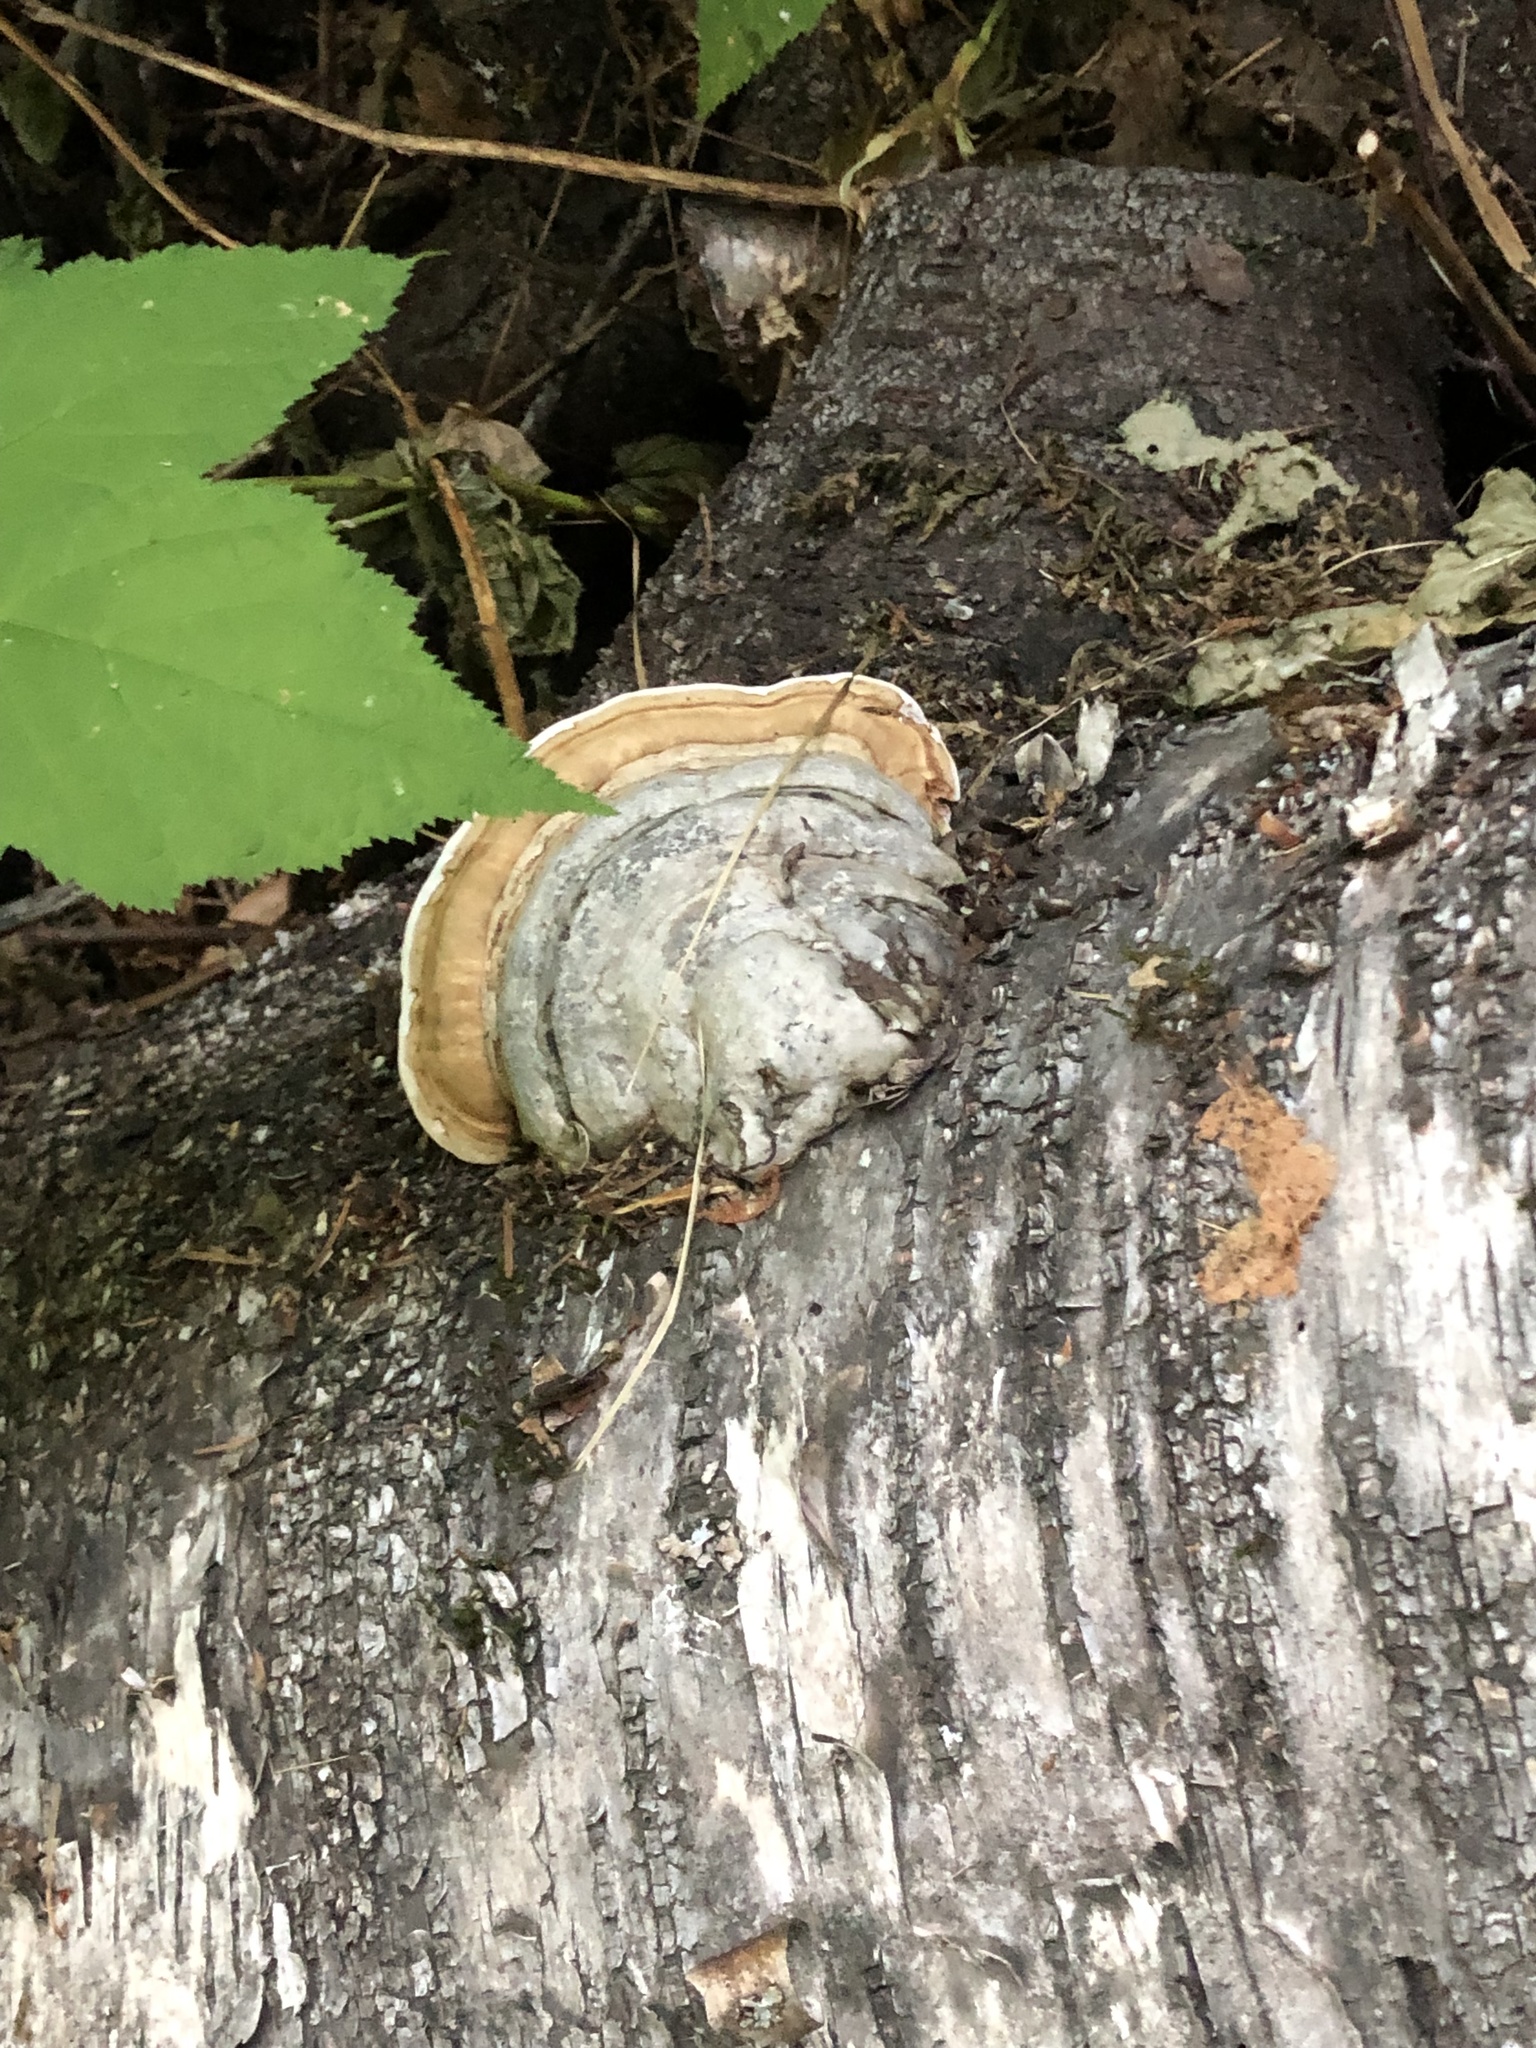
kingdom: Fungi
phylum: Basidiomycota
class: Agaricomycetes
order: Polyporales
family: Polyporaceae
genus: Fomes
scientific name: Fomes fomentarius
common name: Hoof fungus
